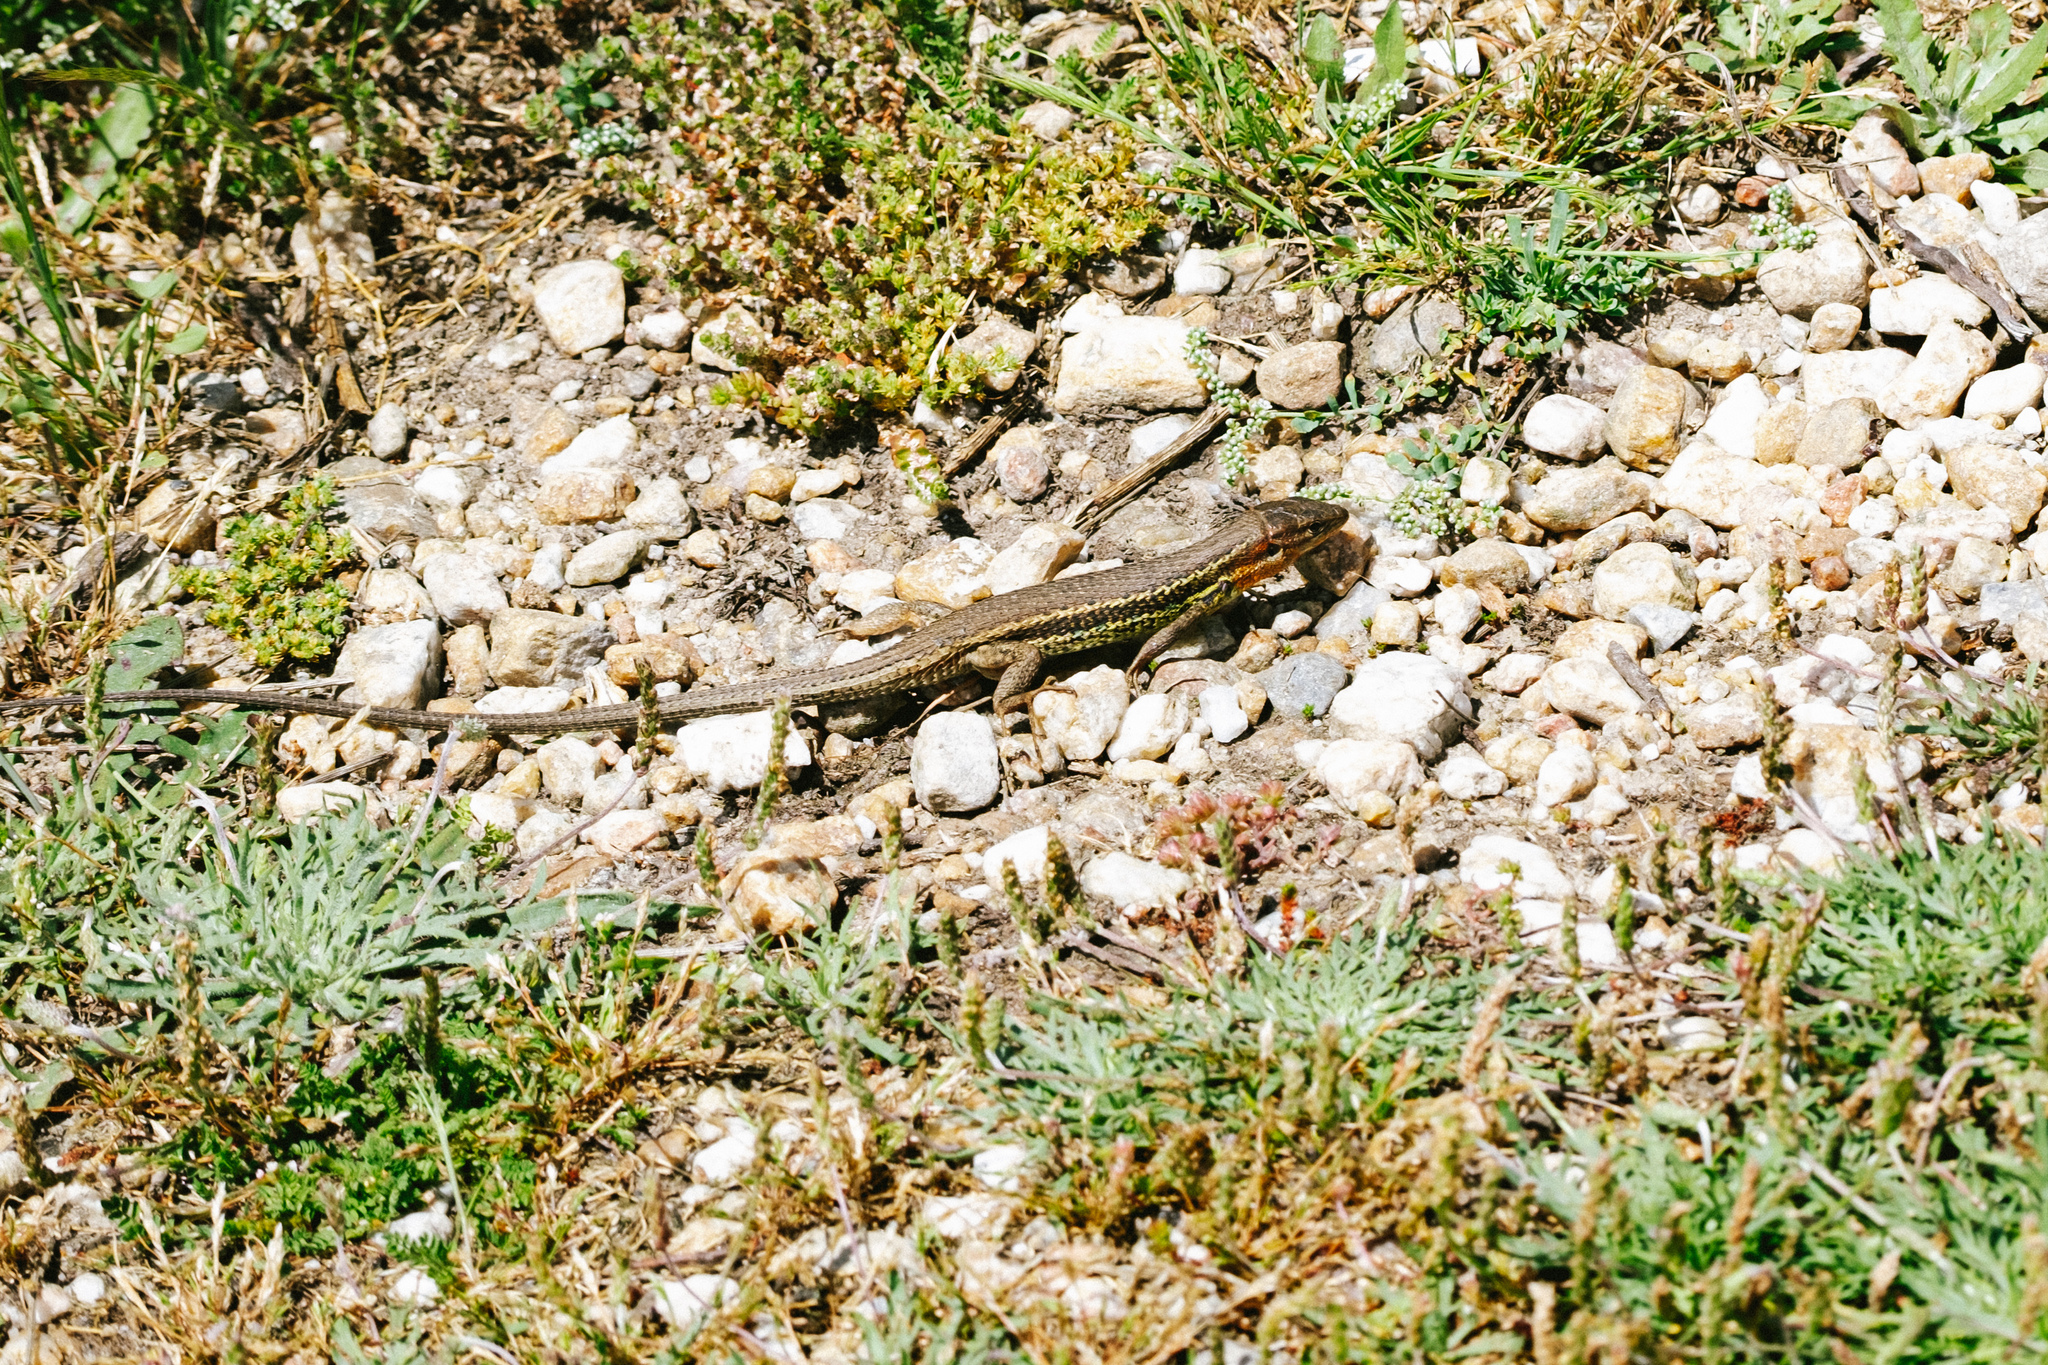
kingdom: Animalia
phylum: Chordata
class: Squamata
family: Lacertidae
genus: Psammodromus
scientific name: Psammodromus algirus
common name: Algerian psammodromus
